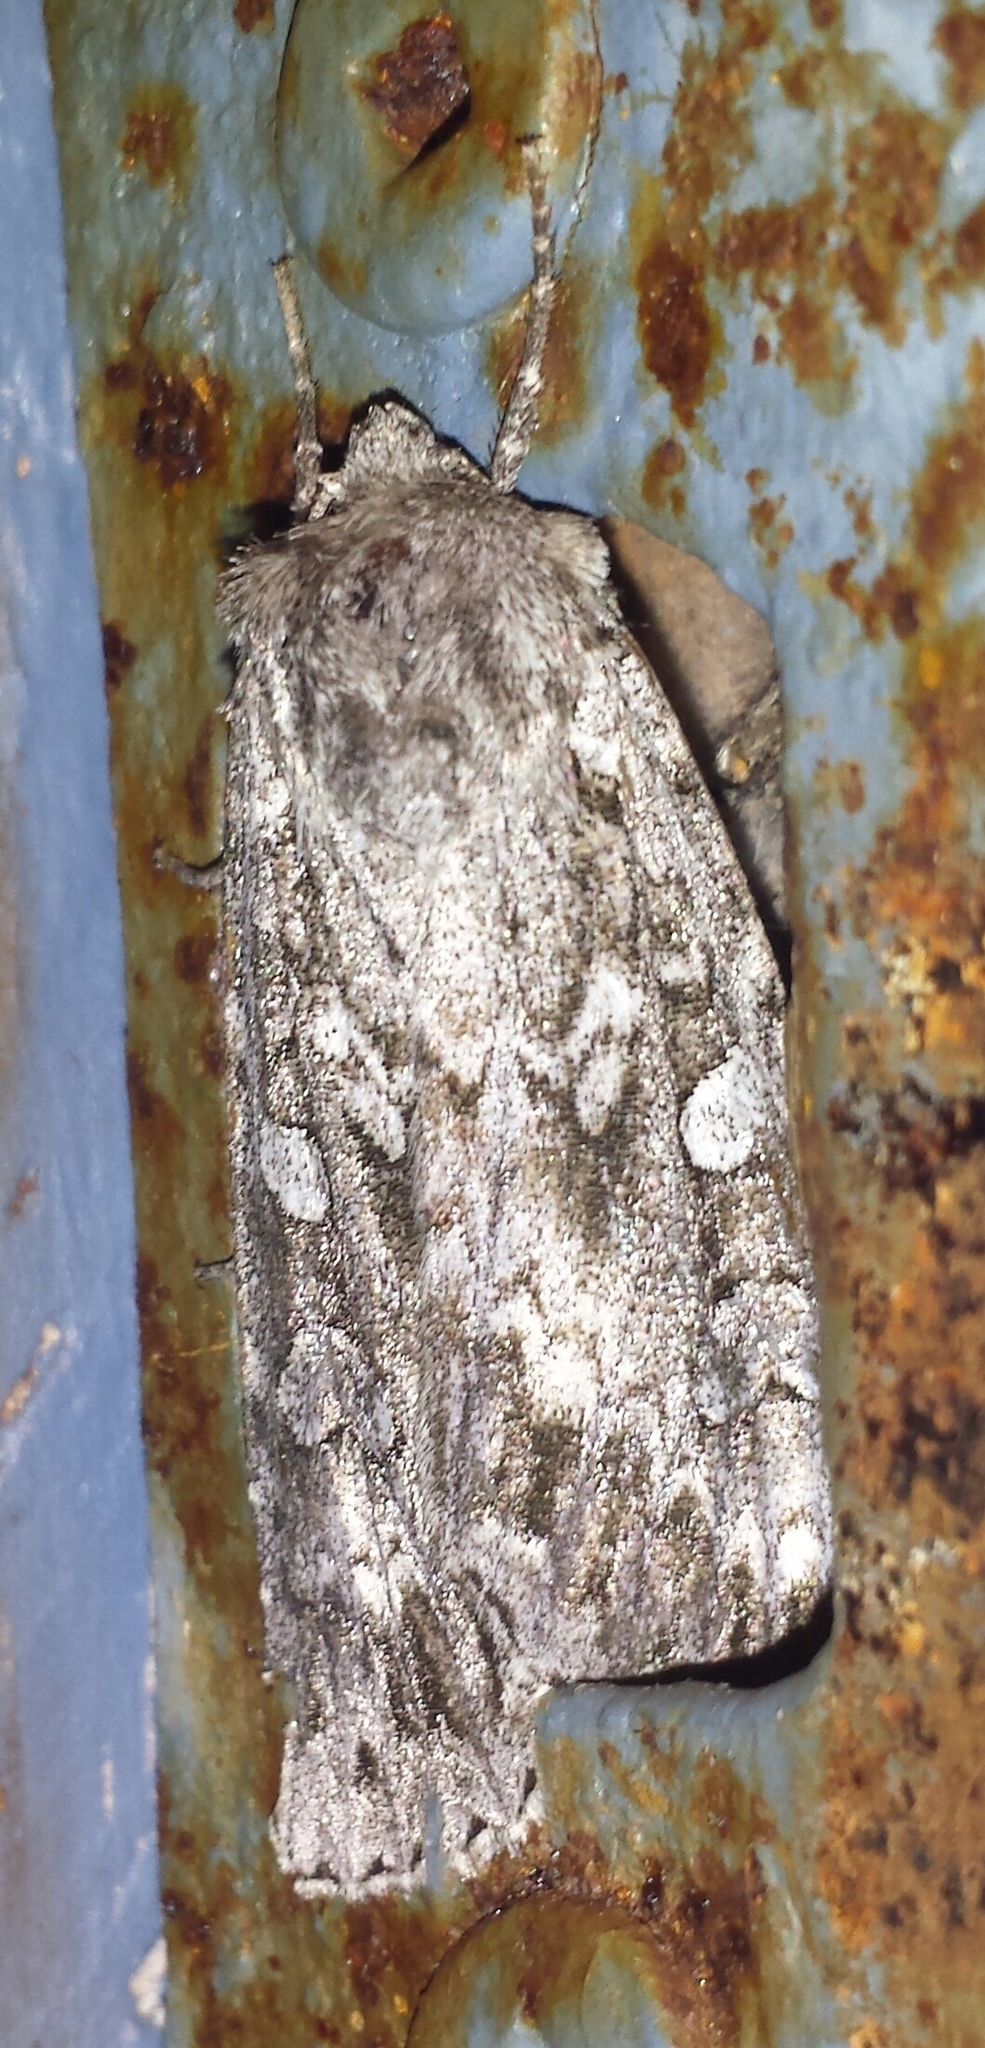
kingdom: Animalia
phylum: Arthropoda
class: Insecta
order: Lepidoptera
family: Noctuidae
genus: Eurois
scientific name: Eurois occulta
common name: Great brocade
